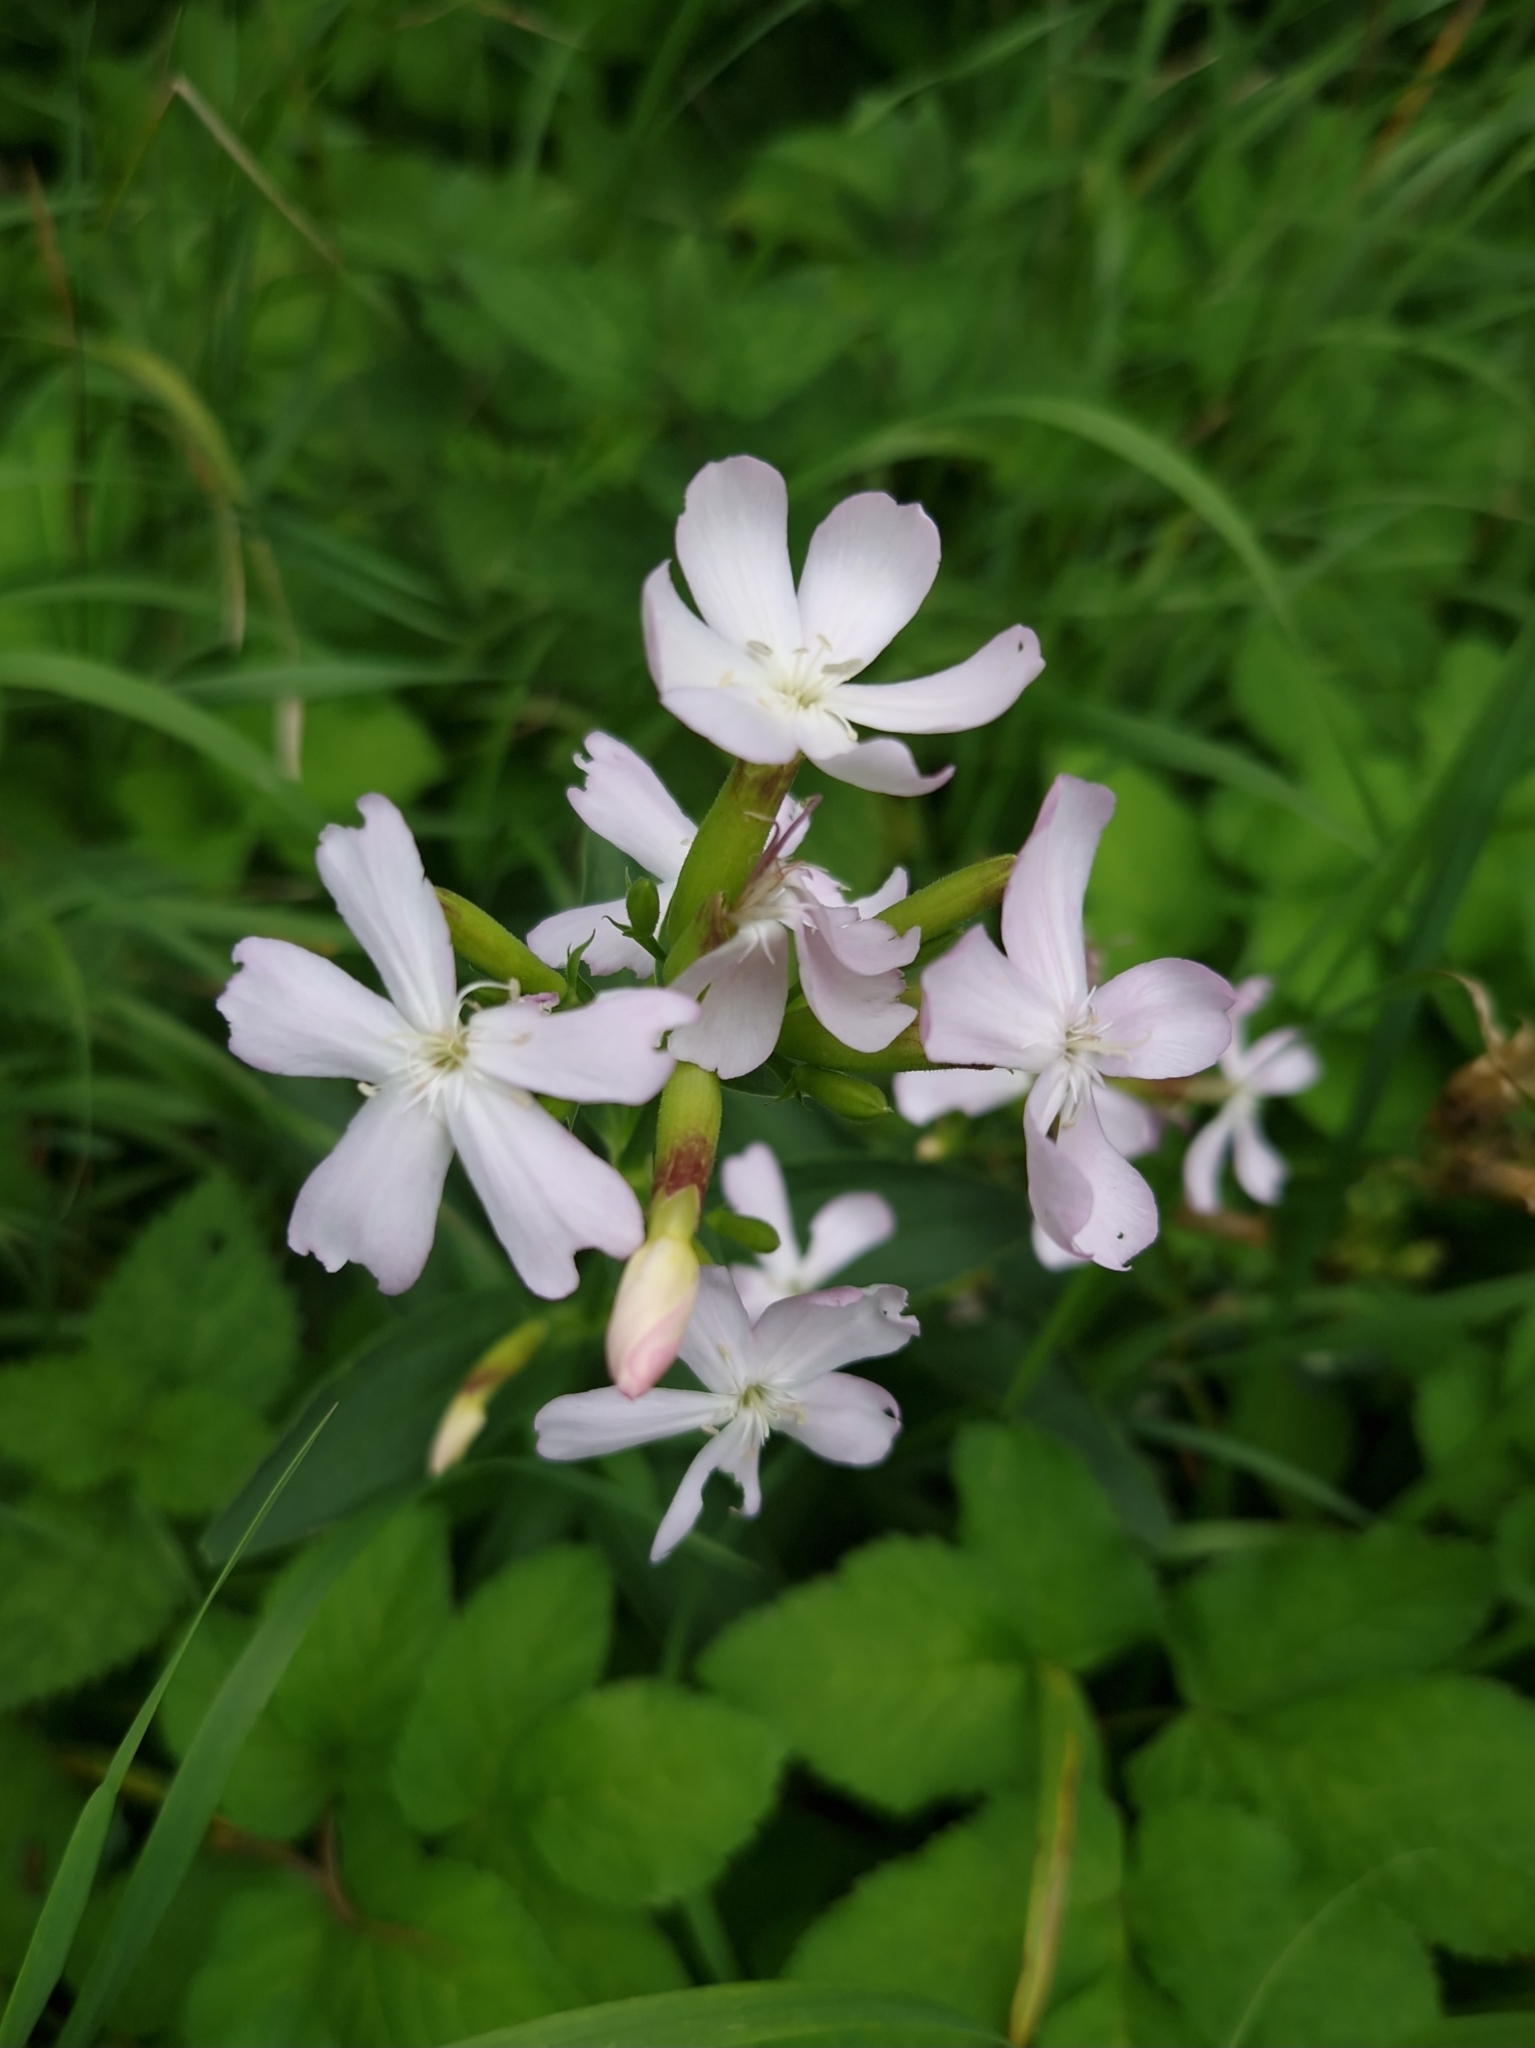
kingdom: Plantae
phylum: Tracheophyta
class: Magnoliopsida
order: Caryophyllales
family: Caryophyllaceae
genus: Saponaria
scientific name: Saponaria officinalis
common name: Soapwort
